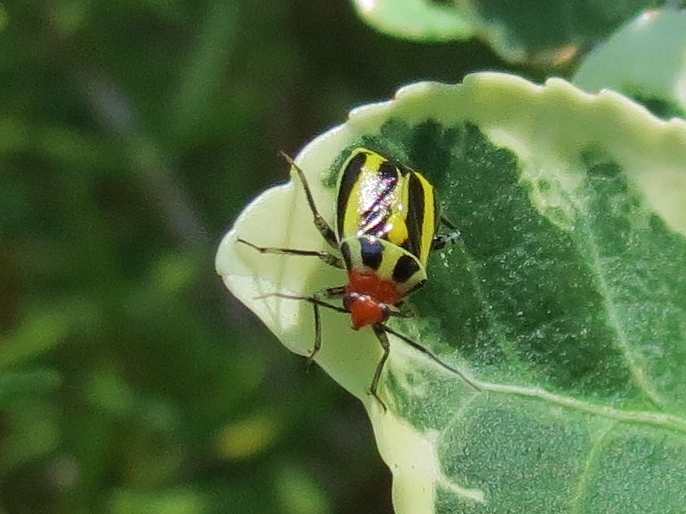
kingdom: Animalia
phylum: Arthropoda
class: Insecta
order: Hemiptera
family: Miridae
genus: Poecilocapsus
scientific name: Poecilocapsus lineatus
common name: Four-lined plant bug
